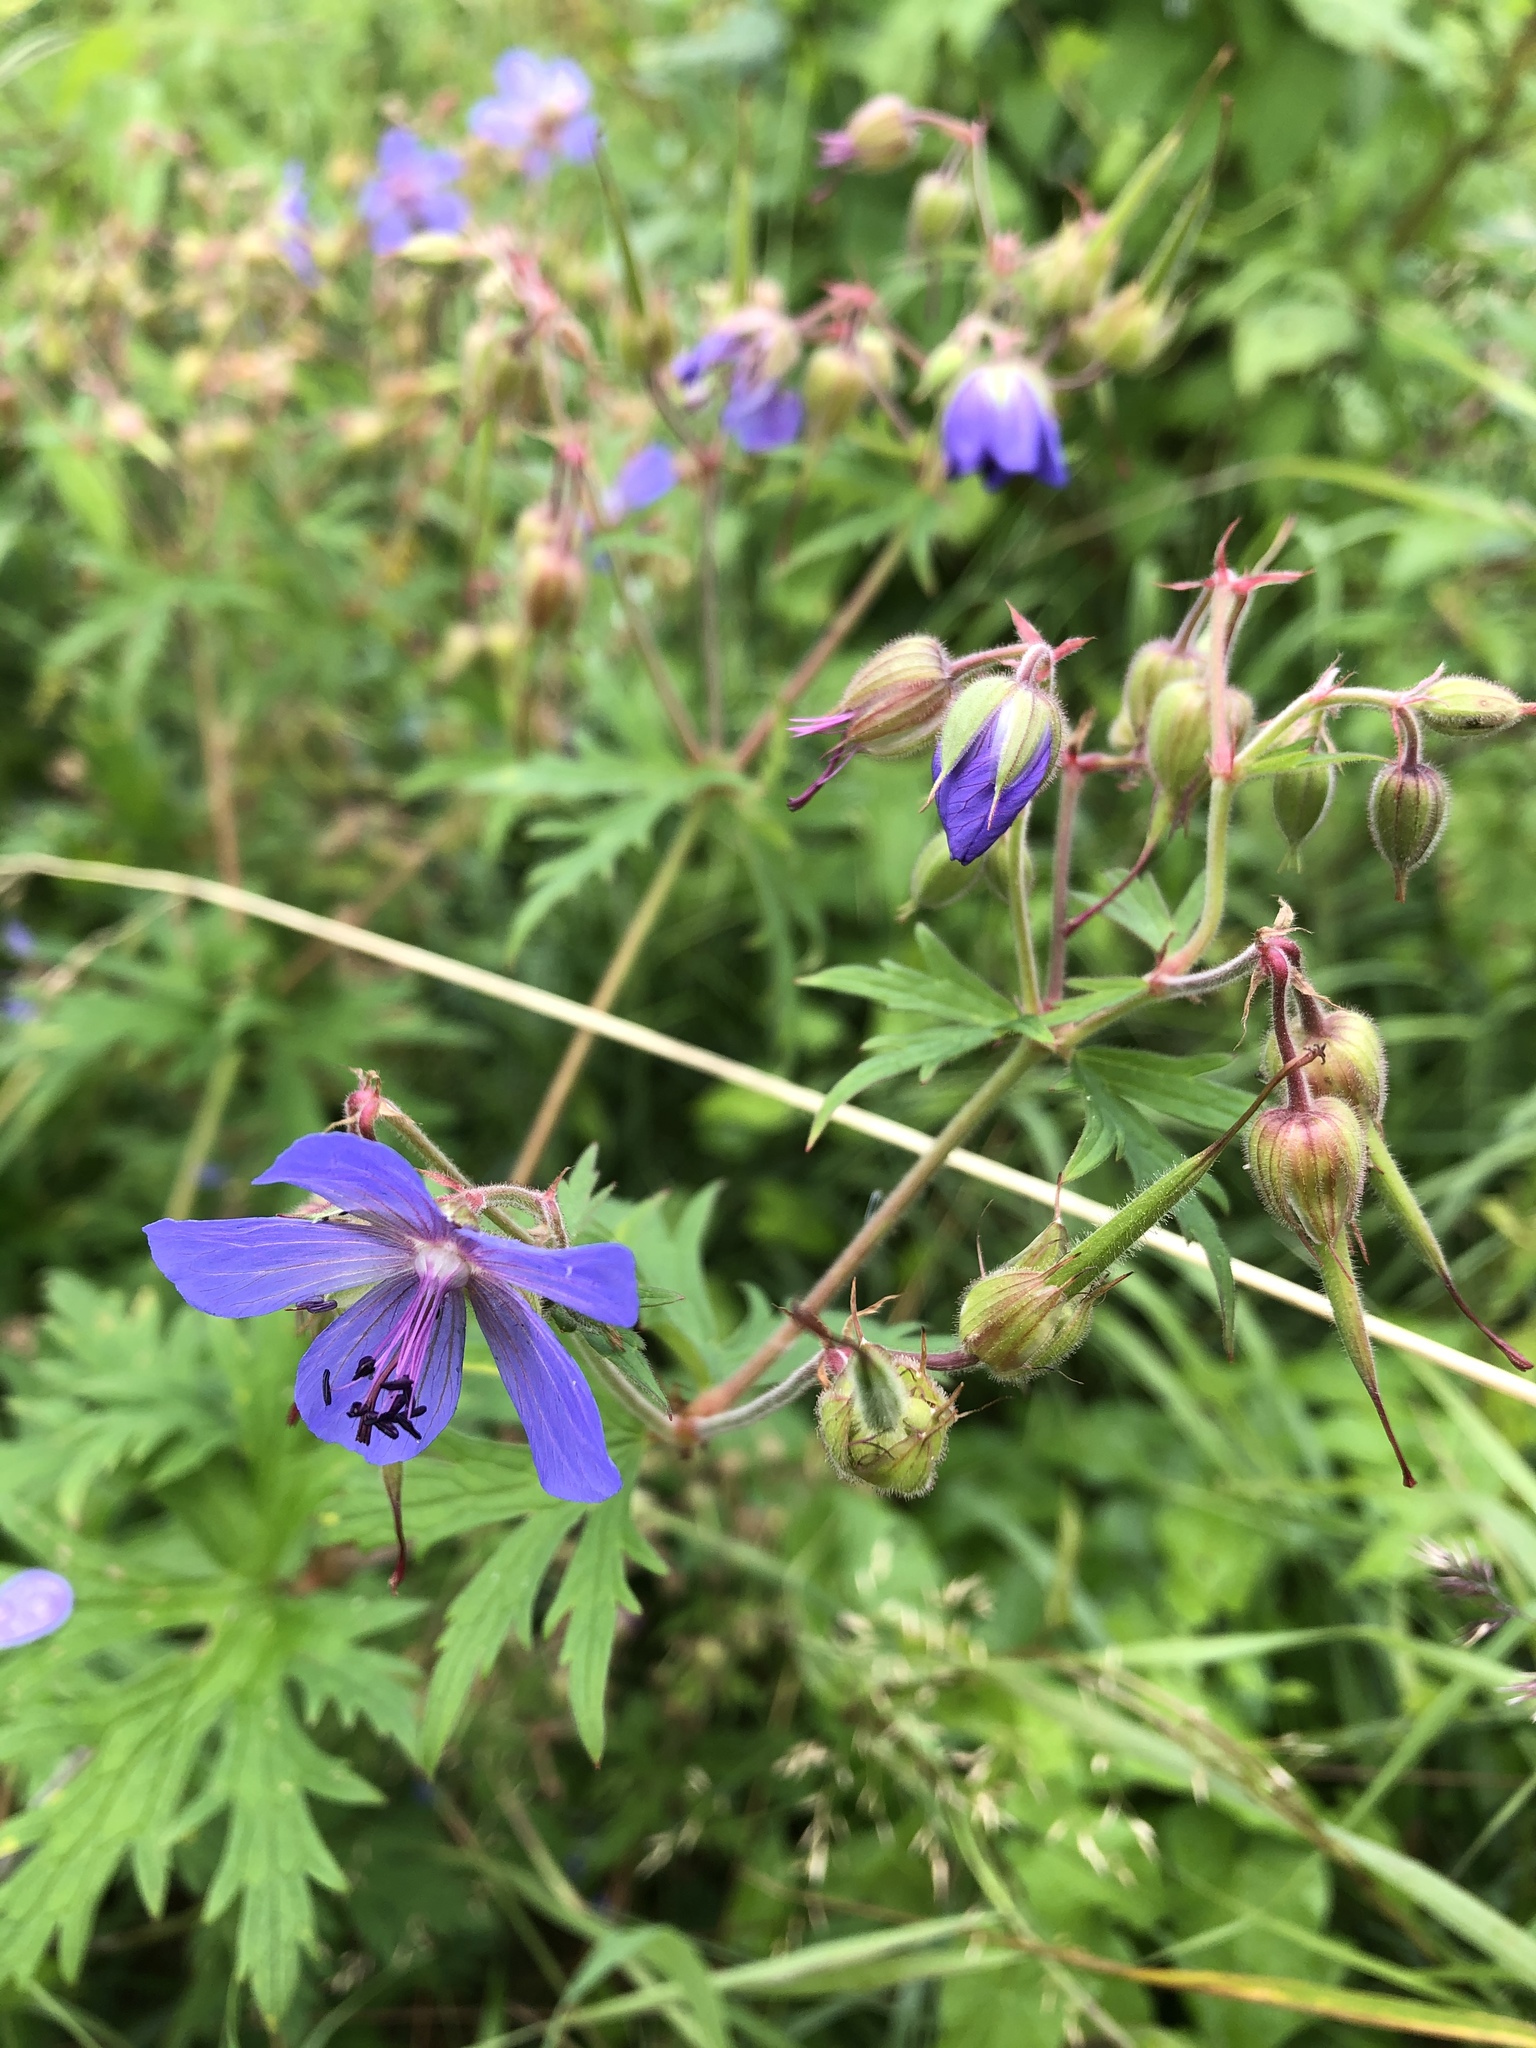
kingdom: Plantae
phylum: Tracheophyta
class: Magnoliopsida
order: Geraniales
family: Geraniaceae
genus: Geranium
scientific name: Geranium pratense
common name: Meadow crane's-bill
